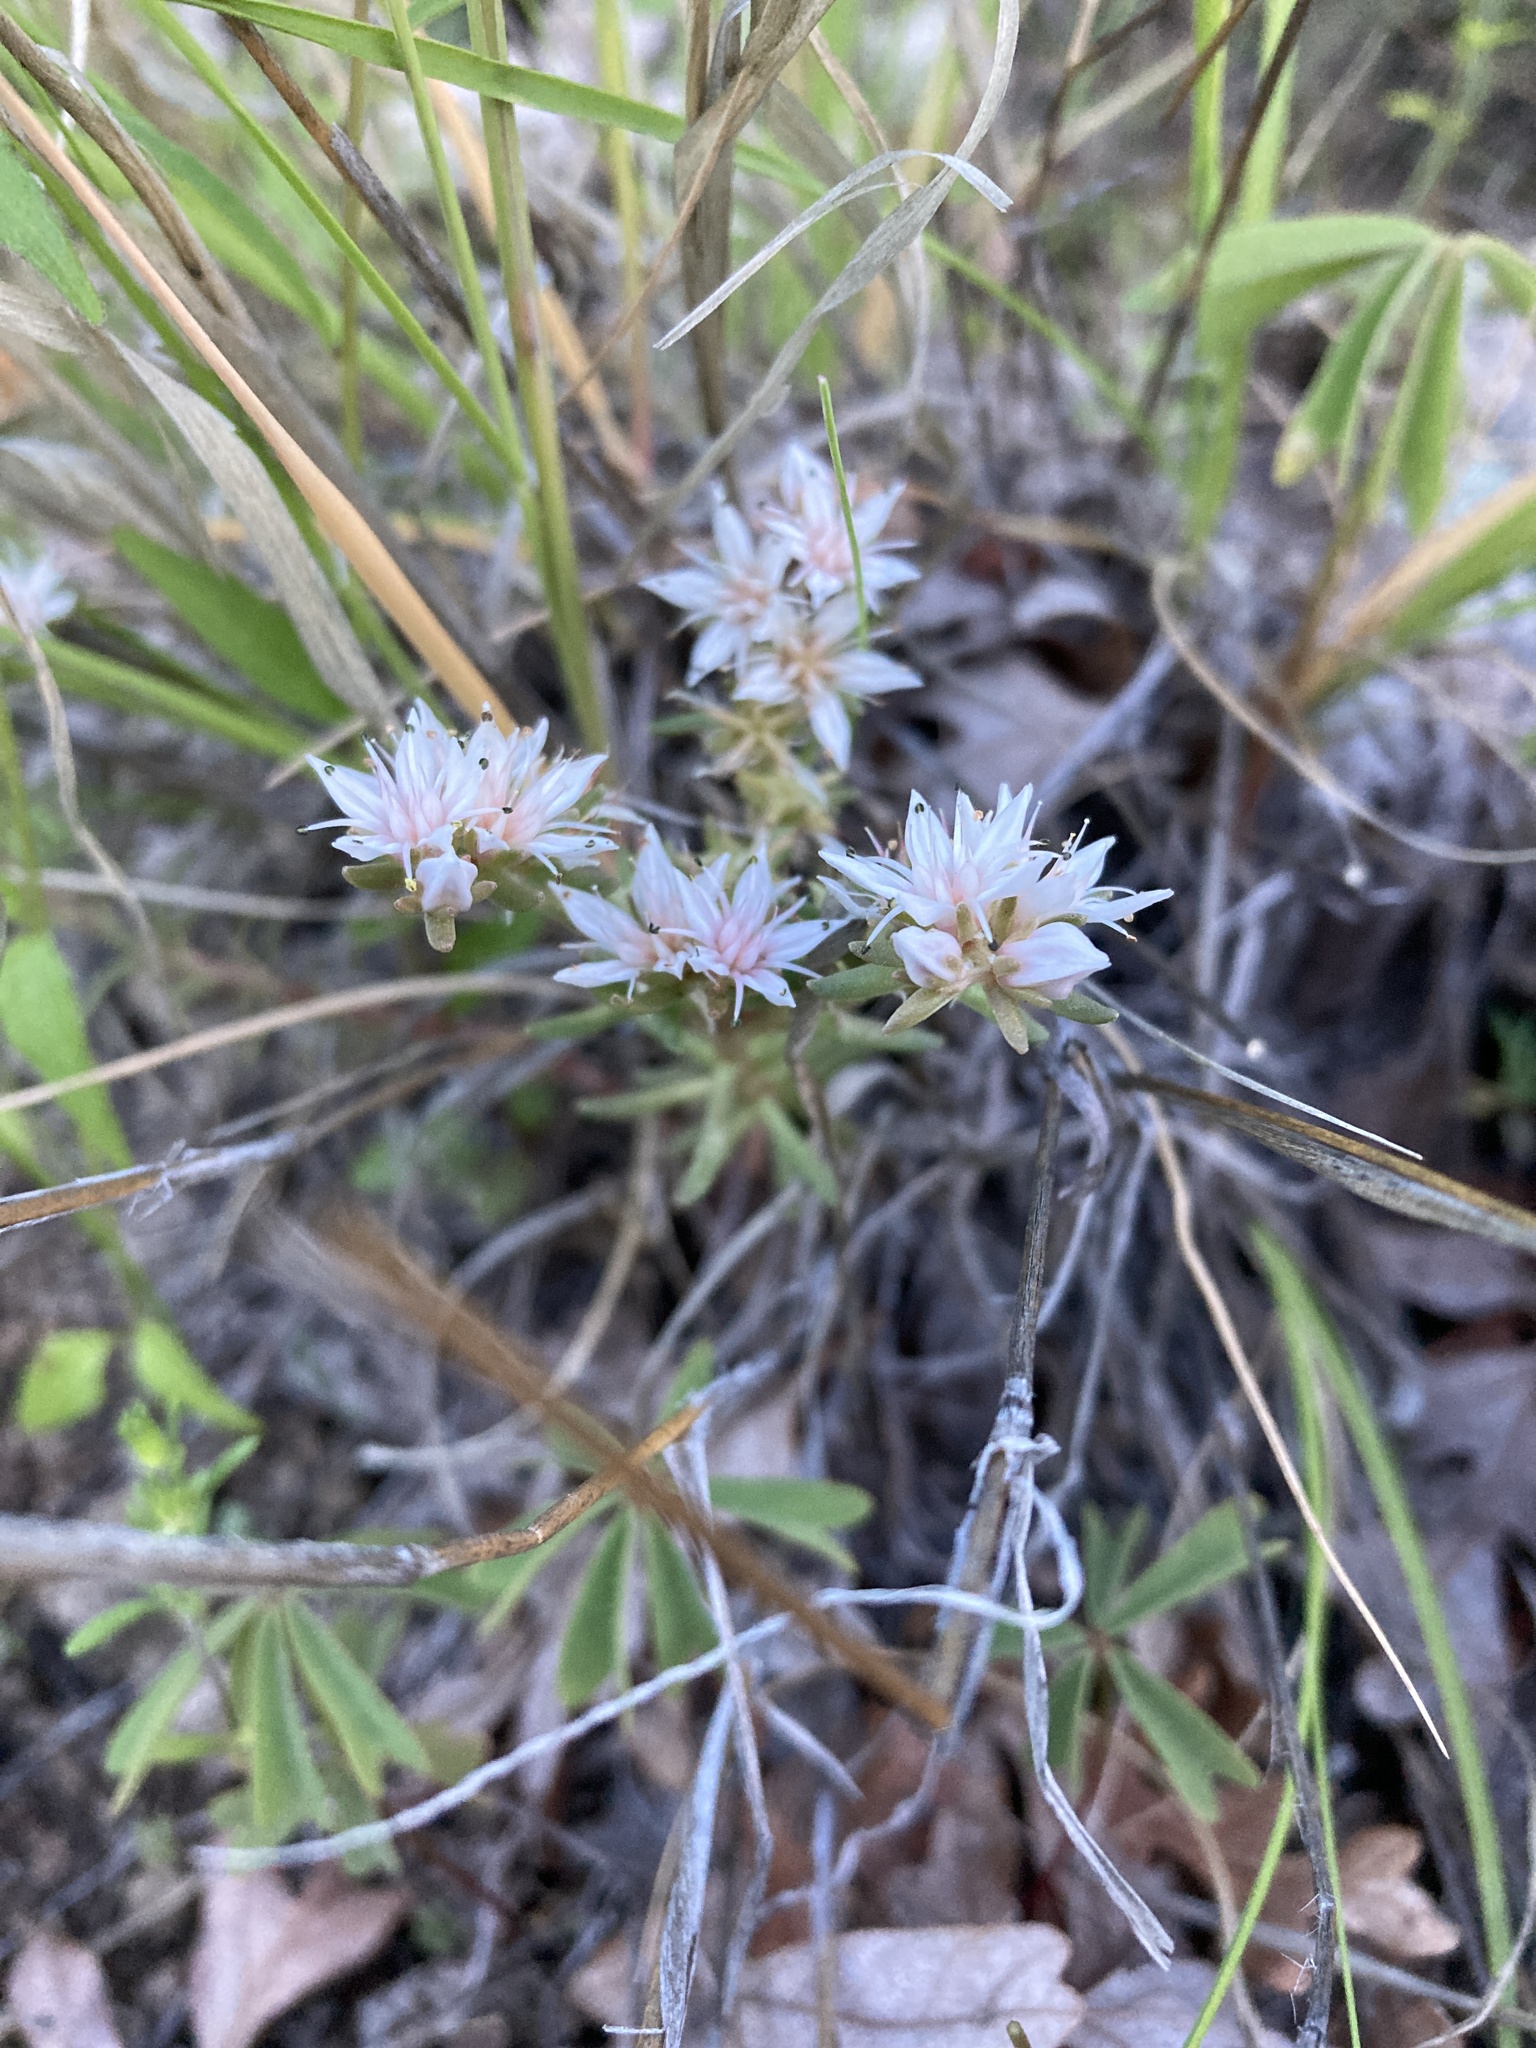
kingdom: Plantae
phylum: Tracheophyta
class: Magnoliopsida
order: Saxifragales
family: Crassulaceae
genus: Sedum
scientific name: Sedum stelliforme
